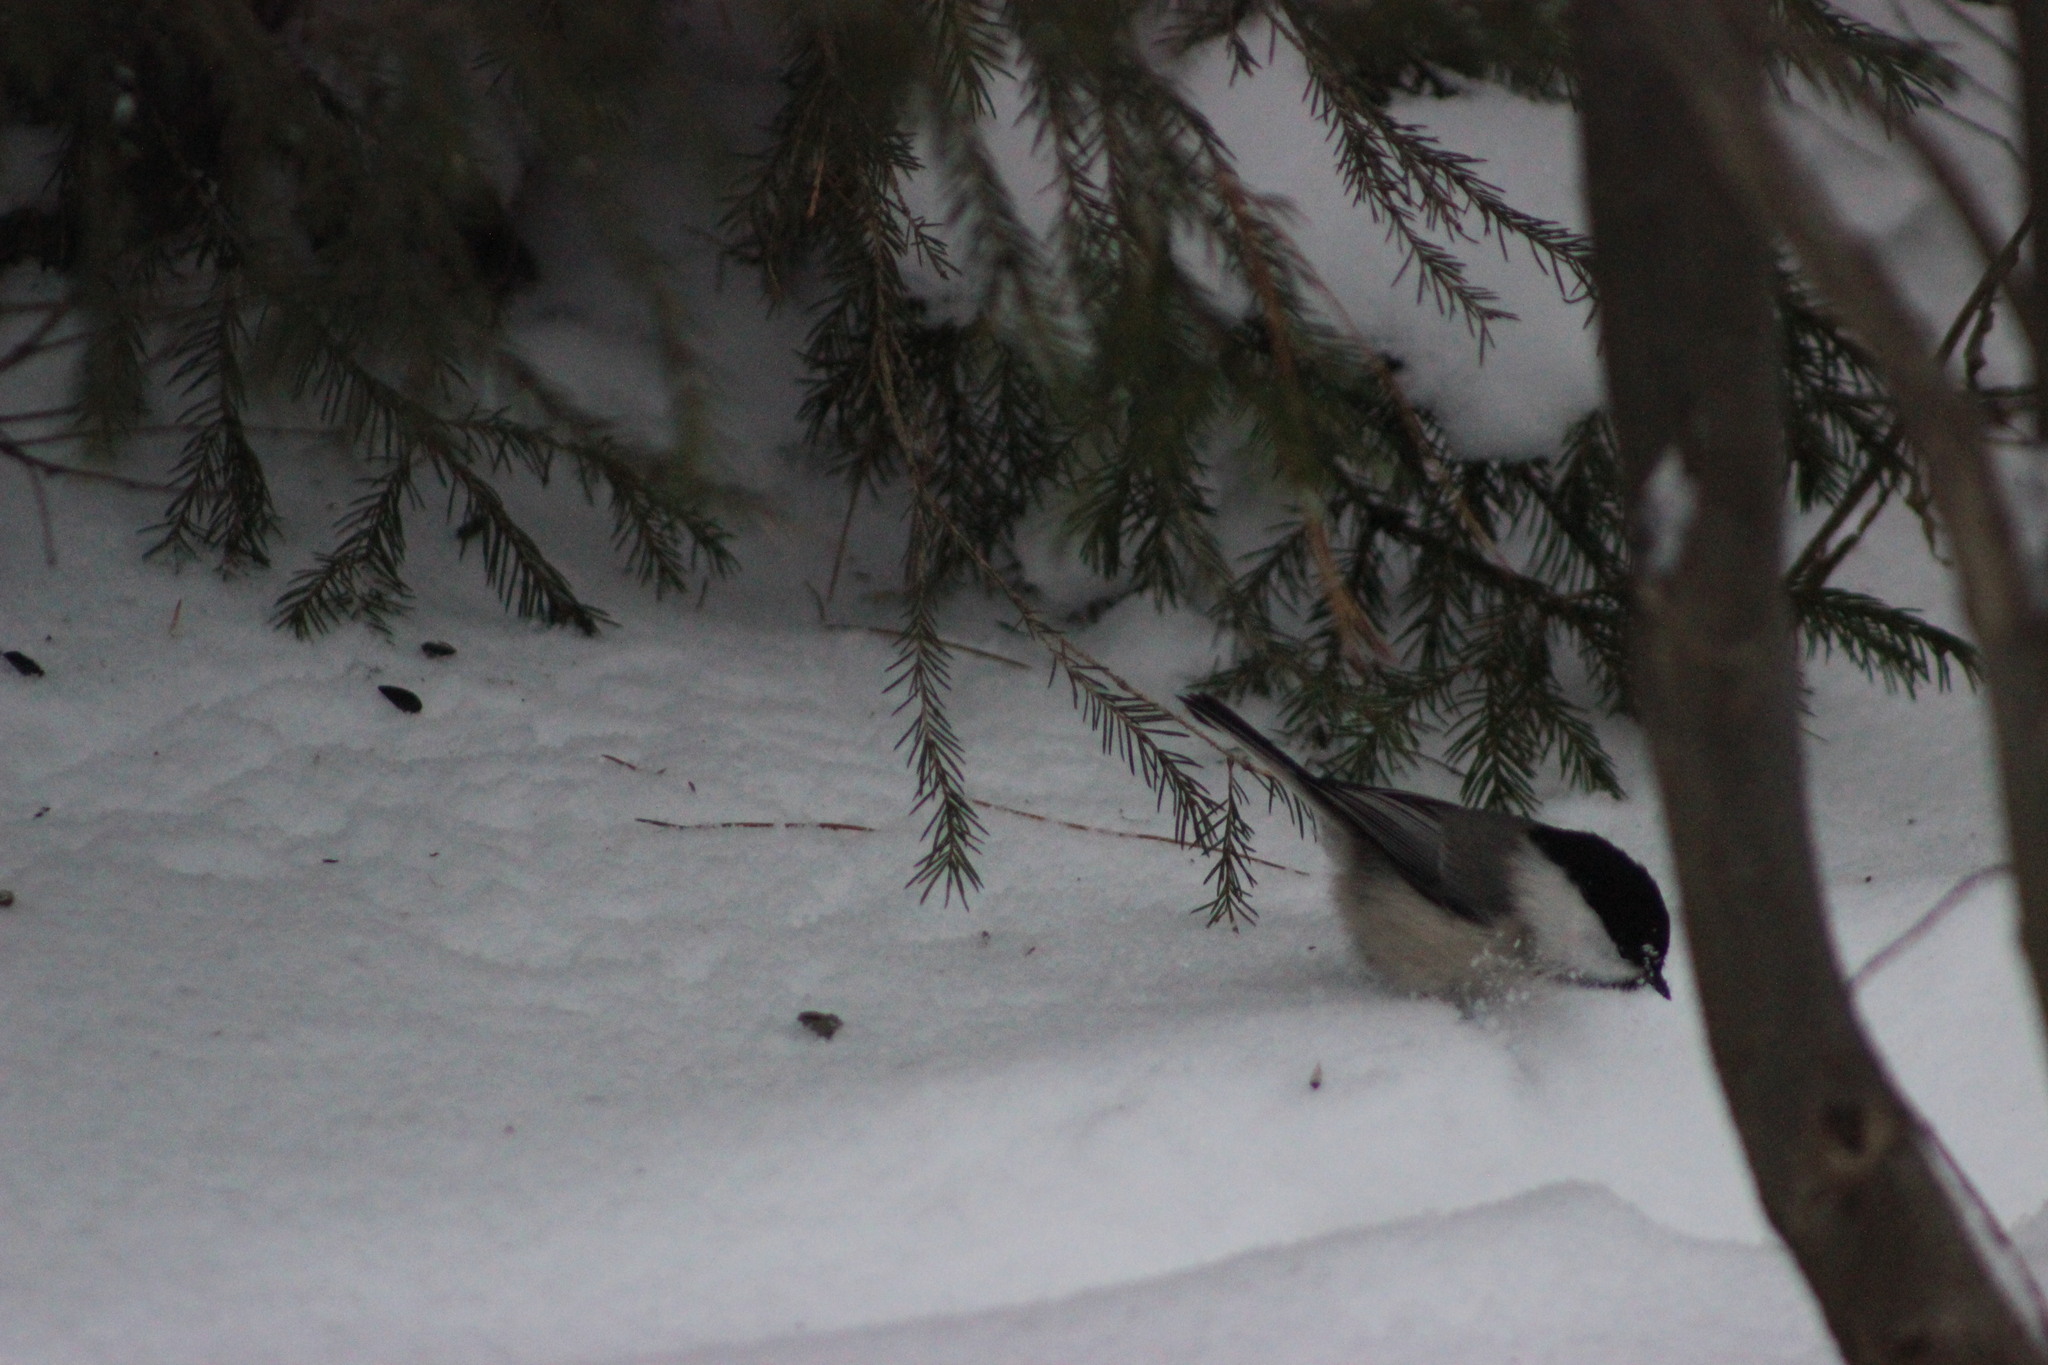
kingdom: Animalia
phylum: Chordata
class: Aves
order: Passeriformes
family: Paridae
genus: Poecile
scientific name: Poecile montanus
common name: Willow tit
